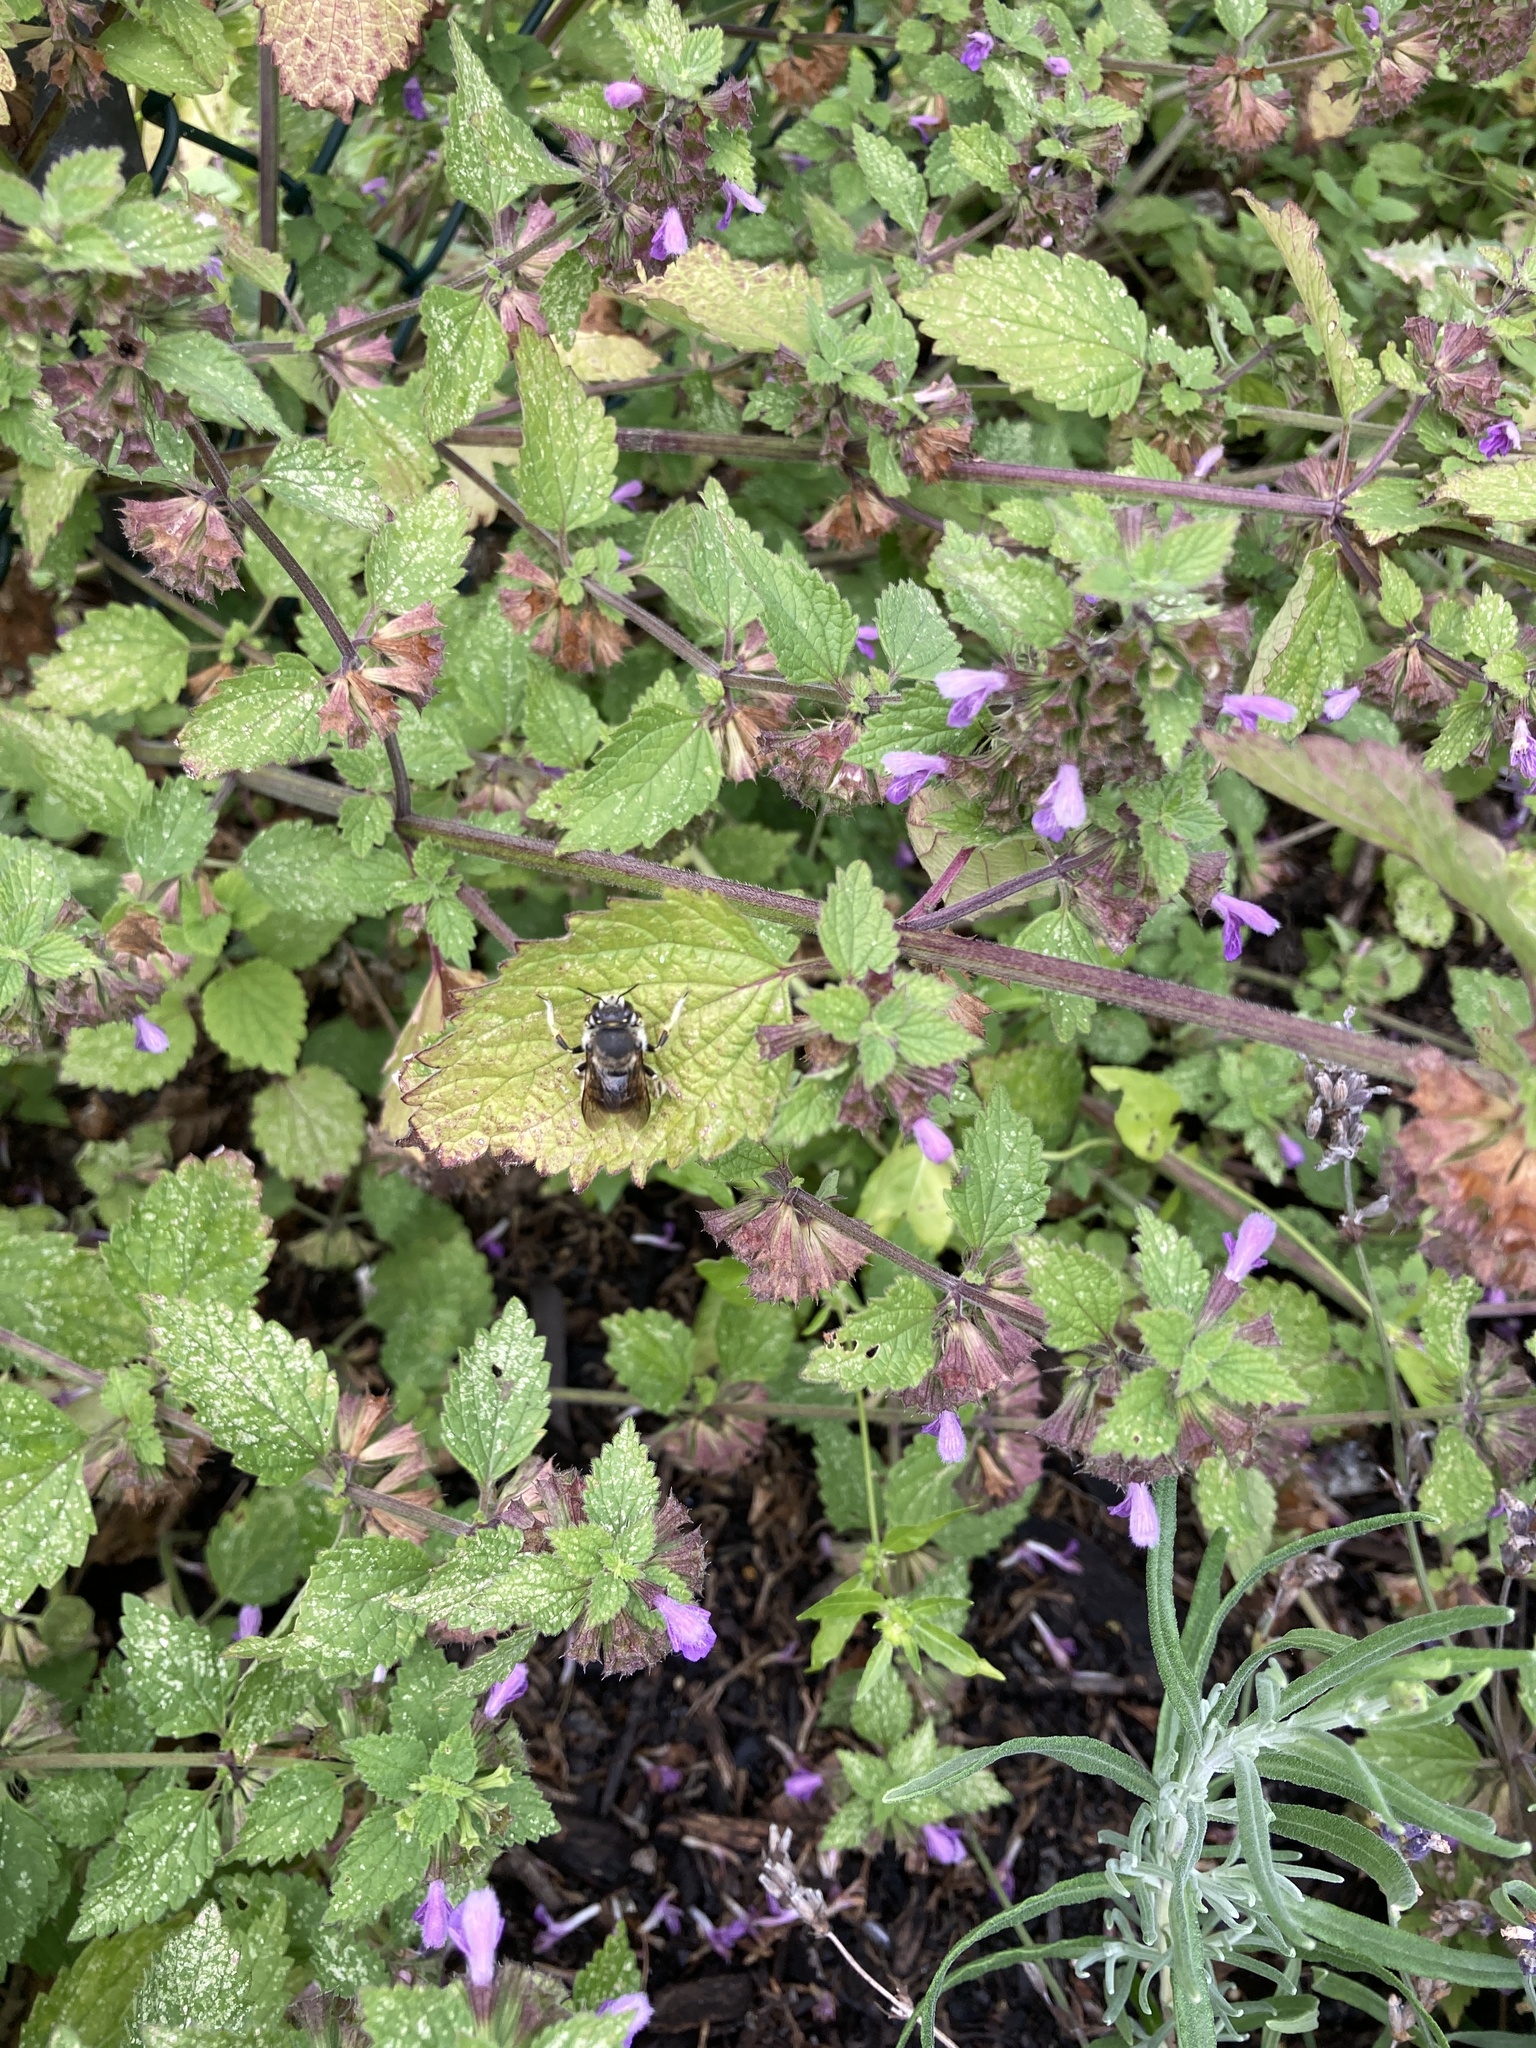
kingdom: Animalia
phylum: Arthropoda
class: Insecta
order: Hymenoptera
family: Megachilidae
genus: Anthidium
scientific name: Anthidium manicatum
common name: Wool carder bee
